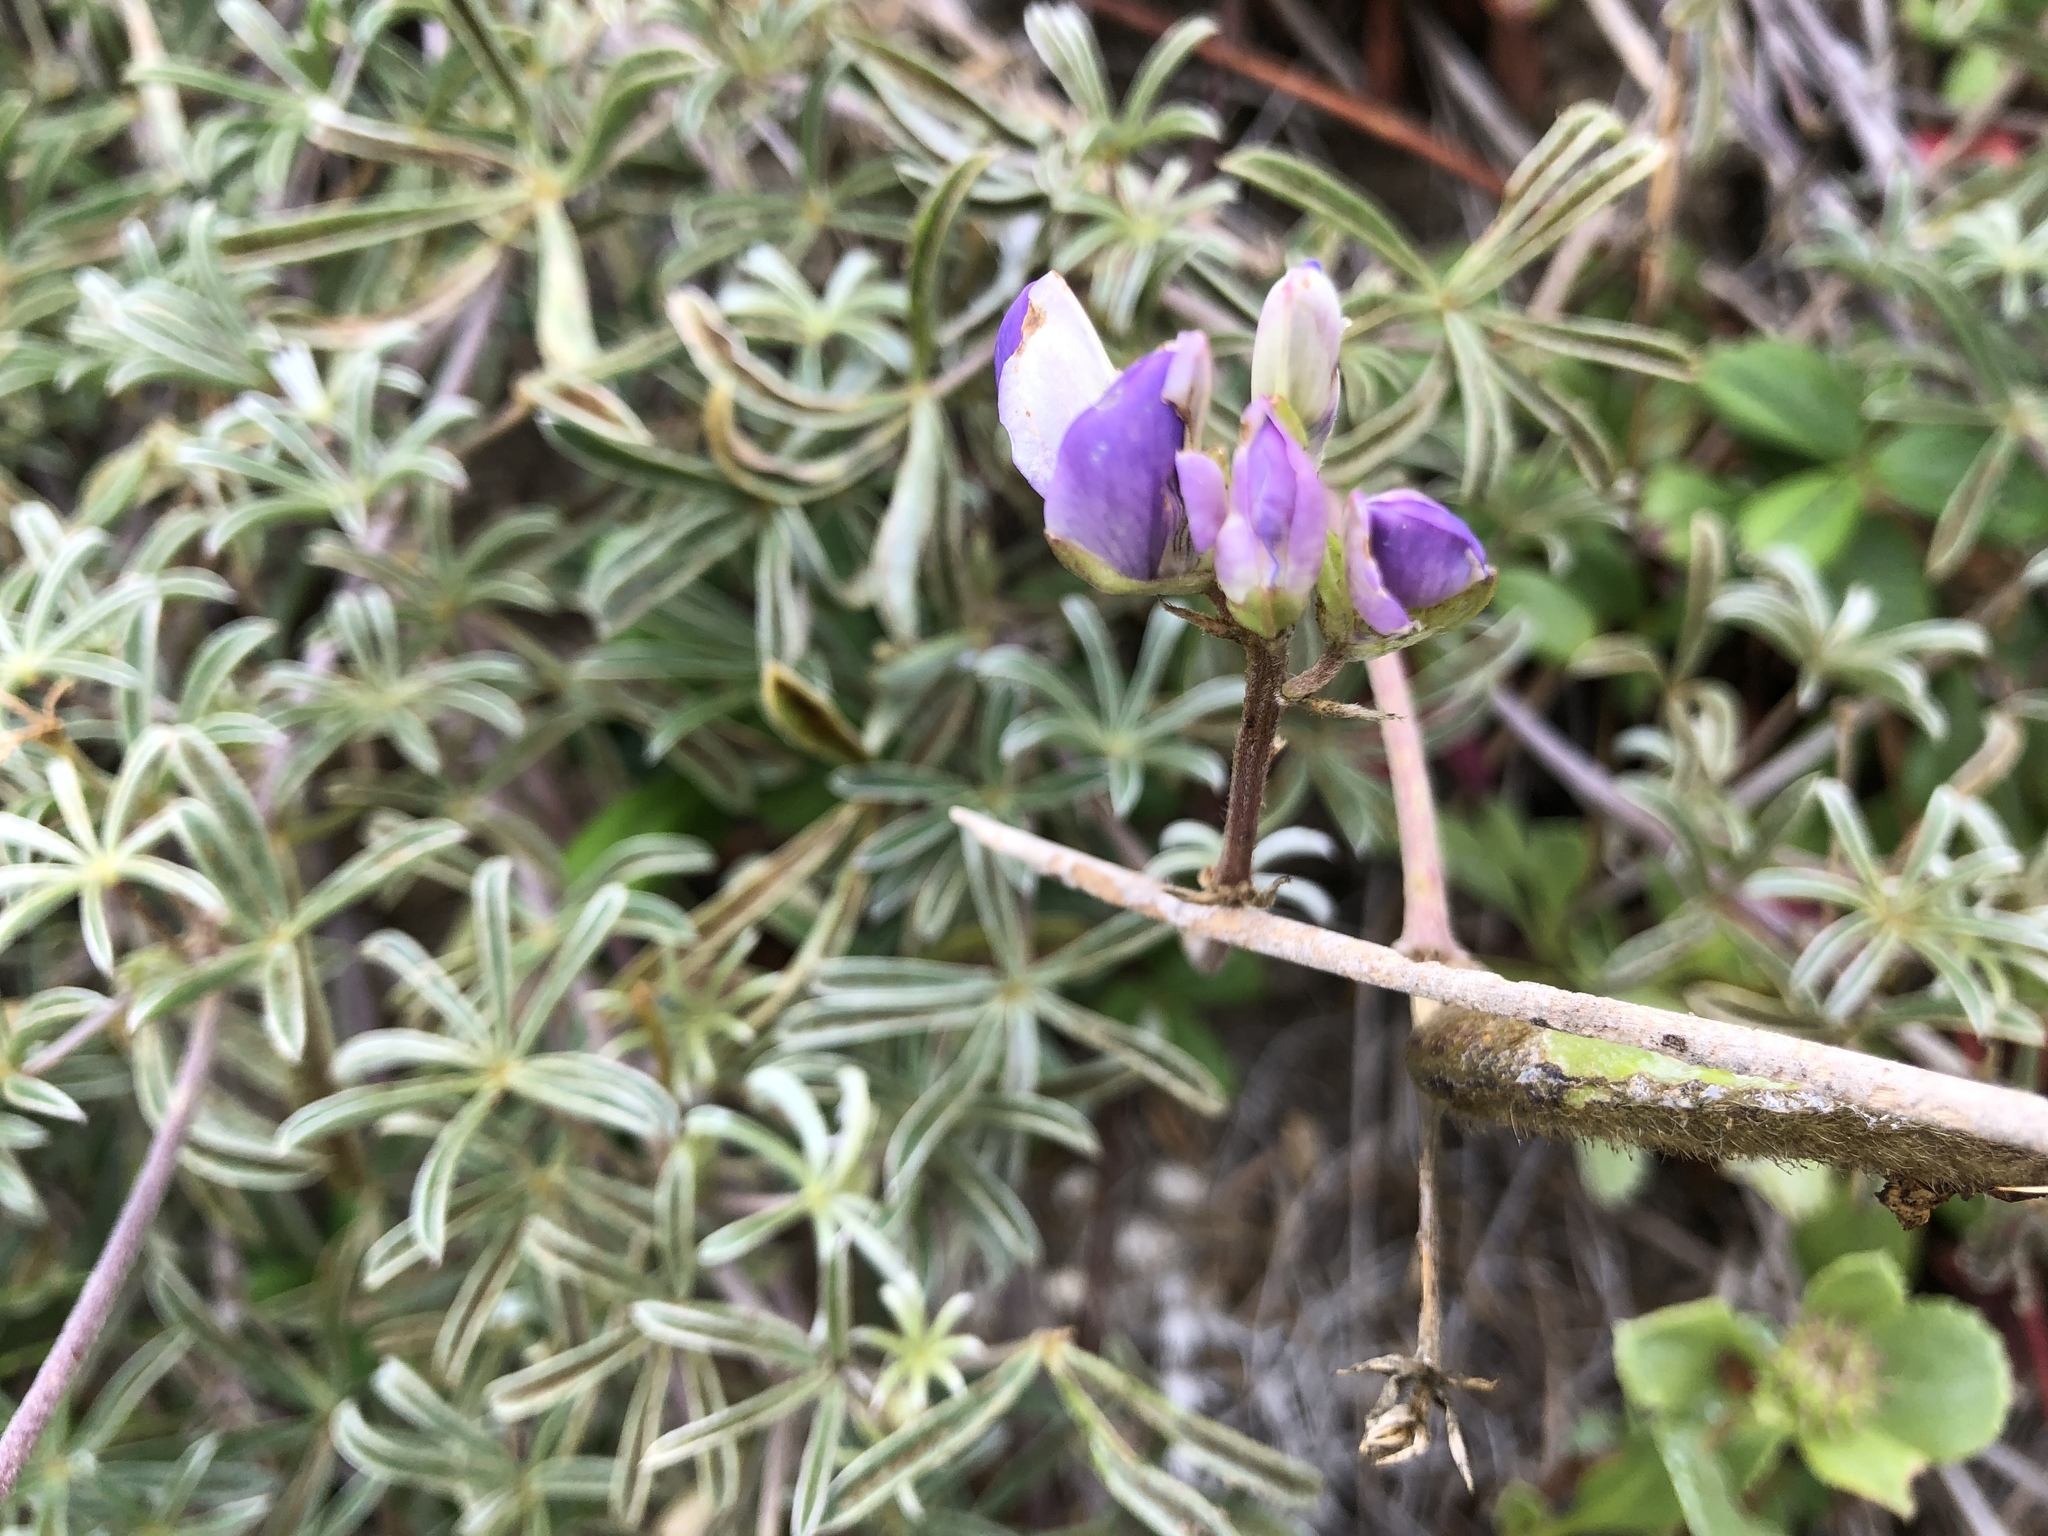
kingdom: Plantae
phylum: Tracheophyta
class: Magnoliopsida
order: Fabales
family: Fabaceae
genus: Lupinus
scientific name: Lupinus variicolor
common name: Lindley's varied lupine
